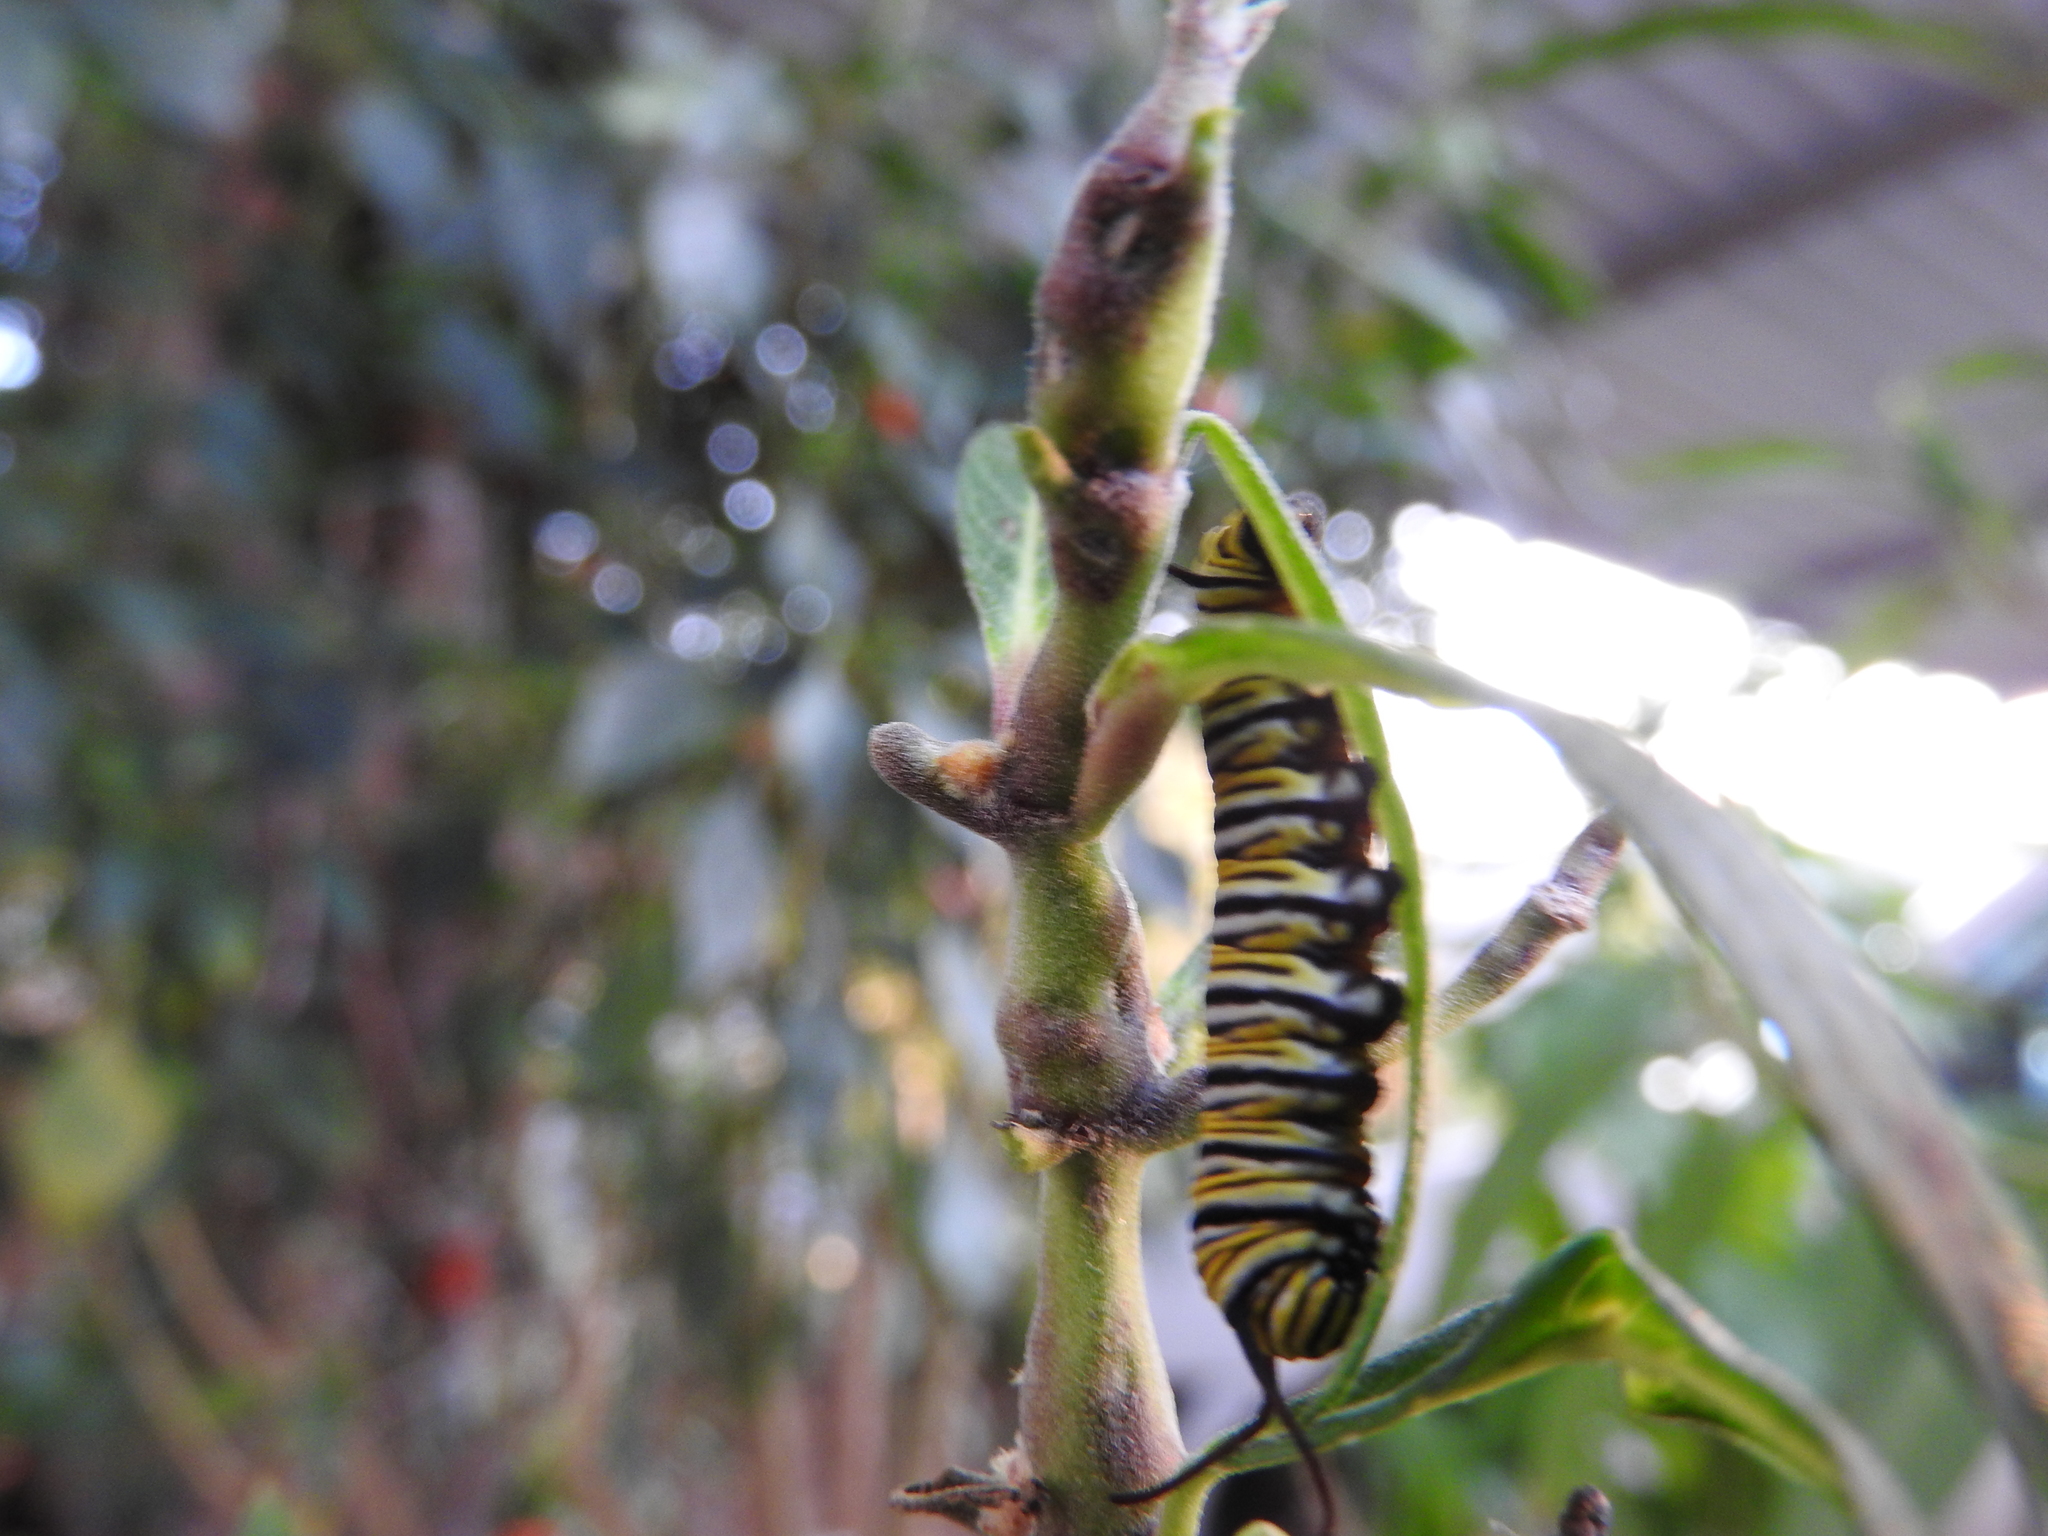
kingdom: Animalia
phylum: Arthropoda
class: Insecta
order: Lepidoptera
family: Nymphalidae
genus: Danaus
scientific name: Danaus plexippus
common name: Monarch
